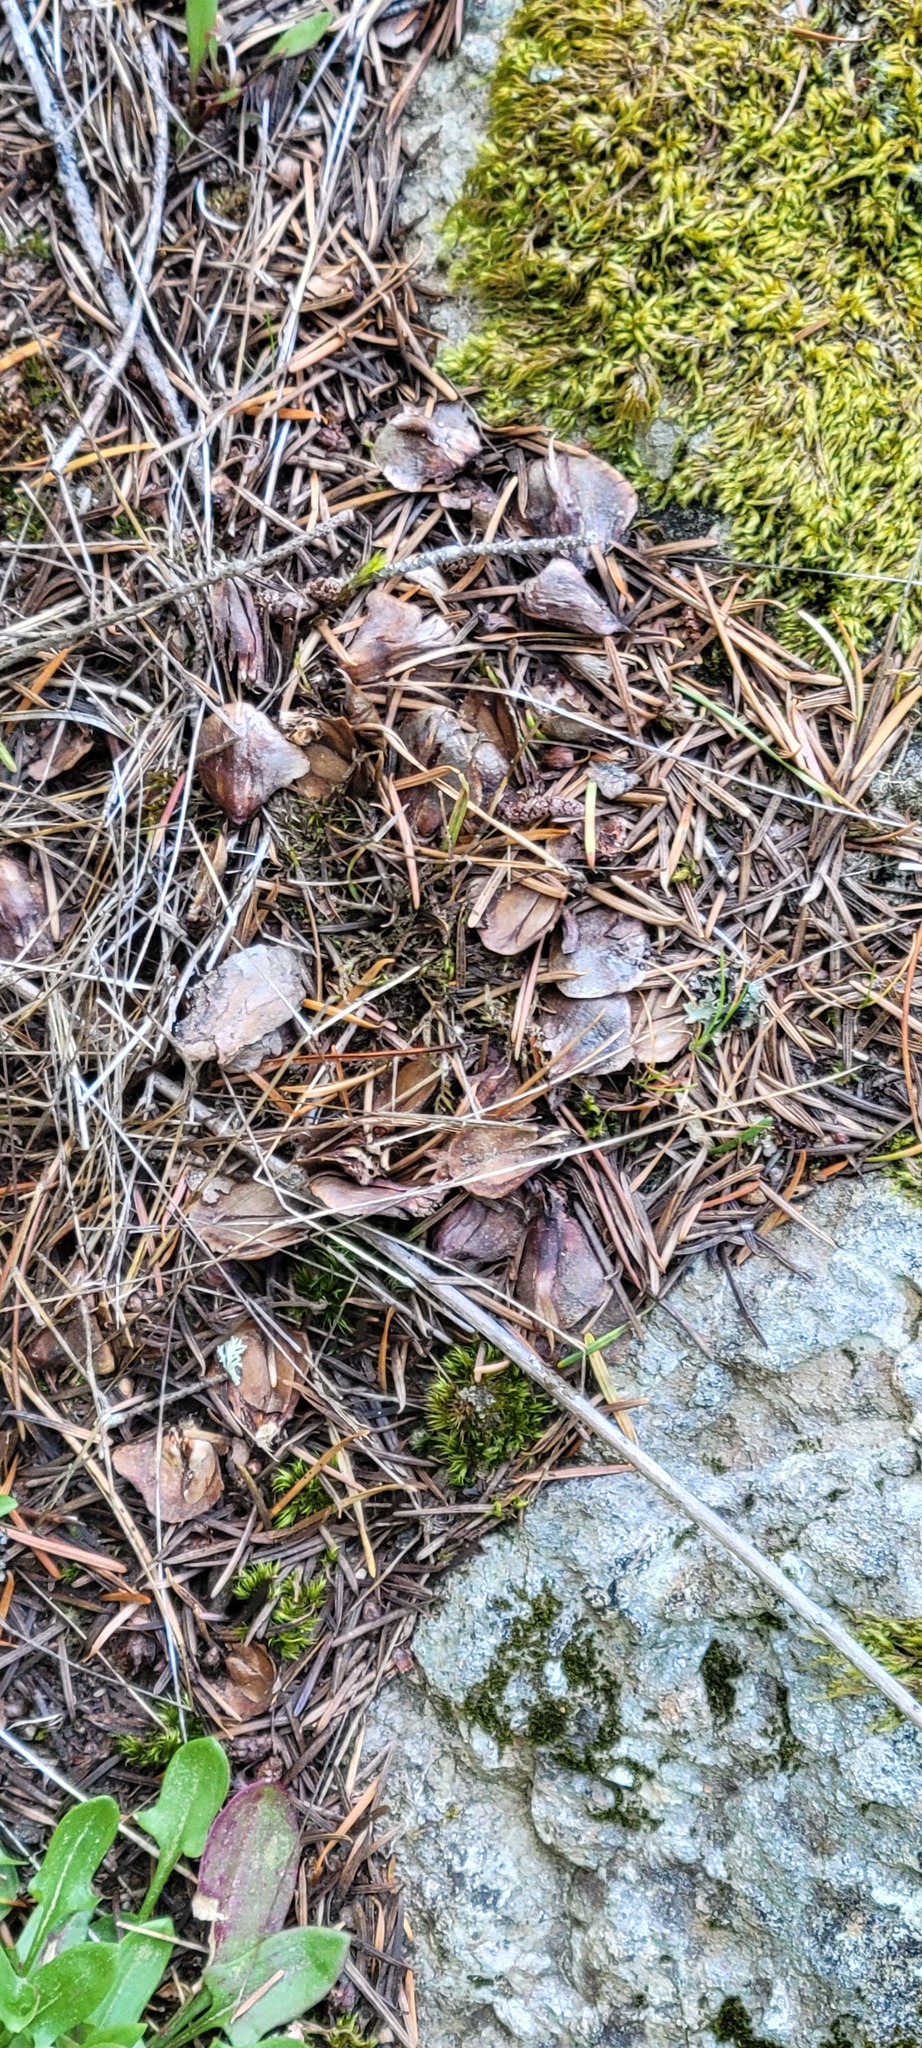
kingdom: Animalia
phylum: Chordata
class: Mammalia
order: Rodentia
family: Sciuridae
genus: Tamiasciurus
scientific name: Tamiasciurus douglasii
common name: Douglas's squirrel
